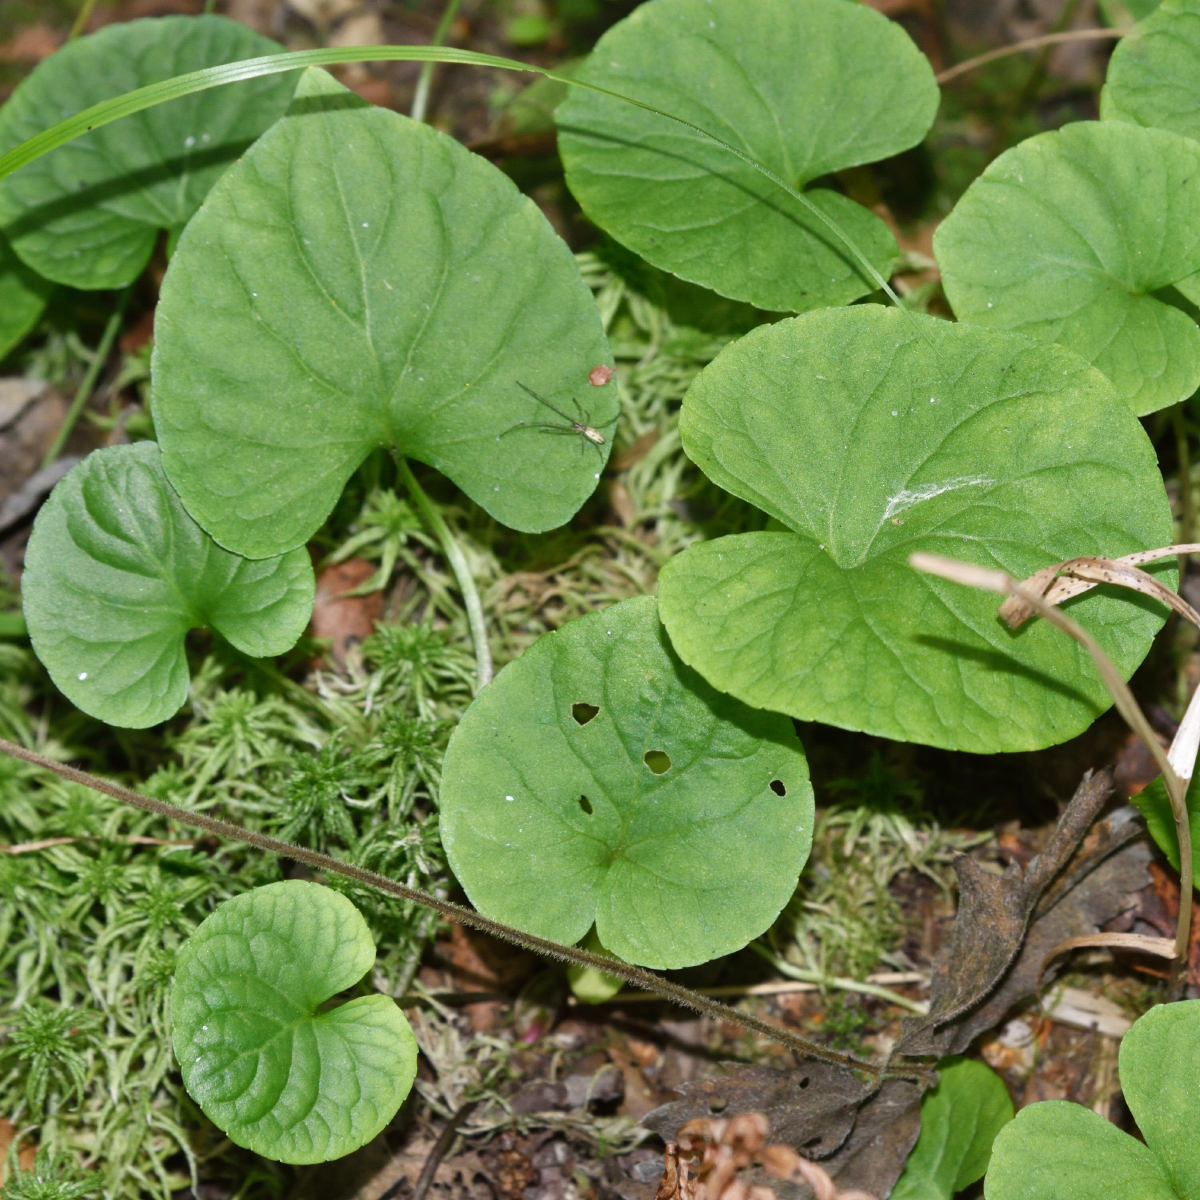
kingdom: Plantae
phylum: Tracheophyta
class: Magnoliopsida
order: Malpighiales
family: Violaceae
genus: Viola
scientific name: Viola epipsila
